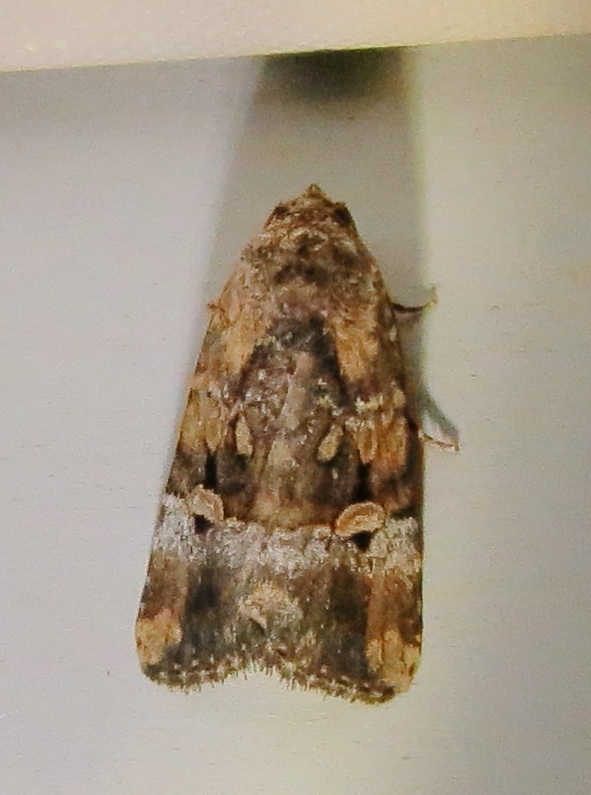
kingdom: Animalia
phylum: Arthropoda
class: Insecta
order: Lepidoptera
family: Noctuidae
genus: Elaphria
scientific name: Elaphria chalcedonia
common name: Chalcedony midget
